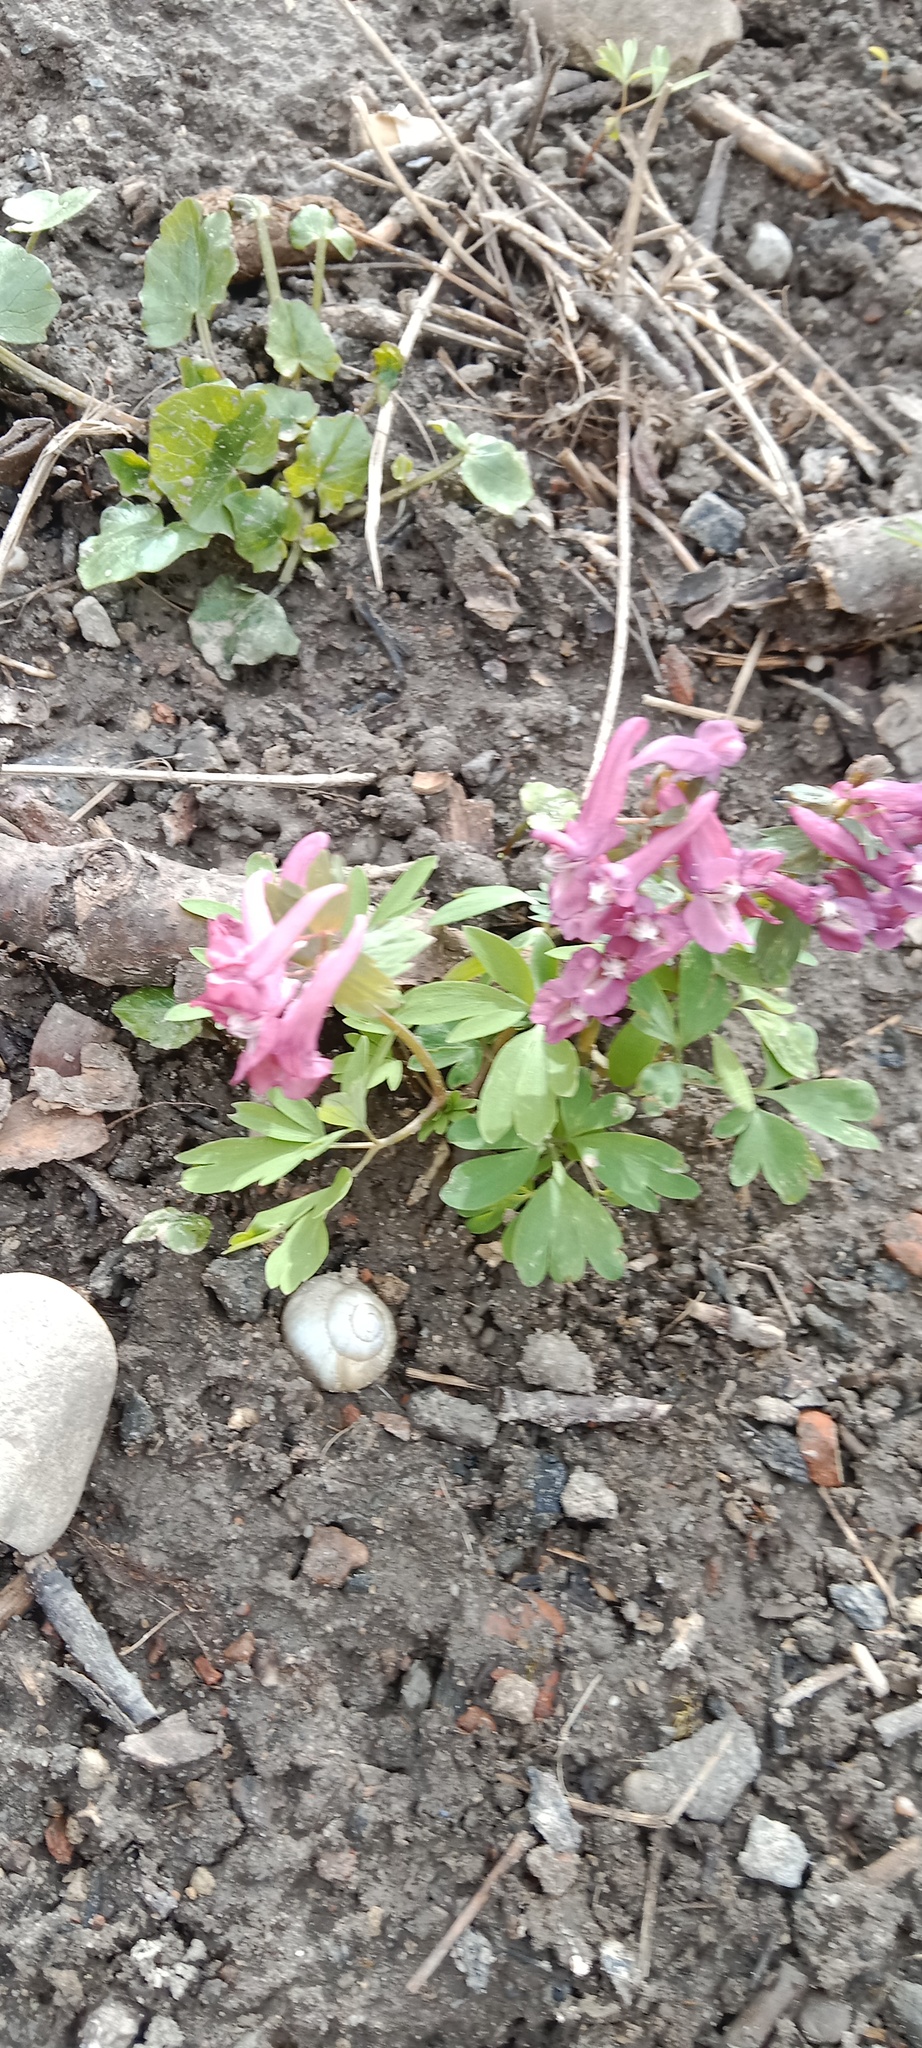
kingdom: Plantae
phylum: Tracheophyta
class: Magnoliopsida
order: Ranunculales
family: Papaveraceae
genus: Corydalis
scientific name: Corydalis solida
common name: Bird-in-a-bush
